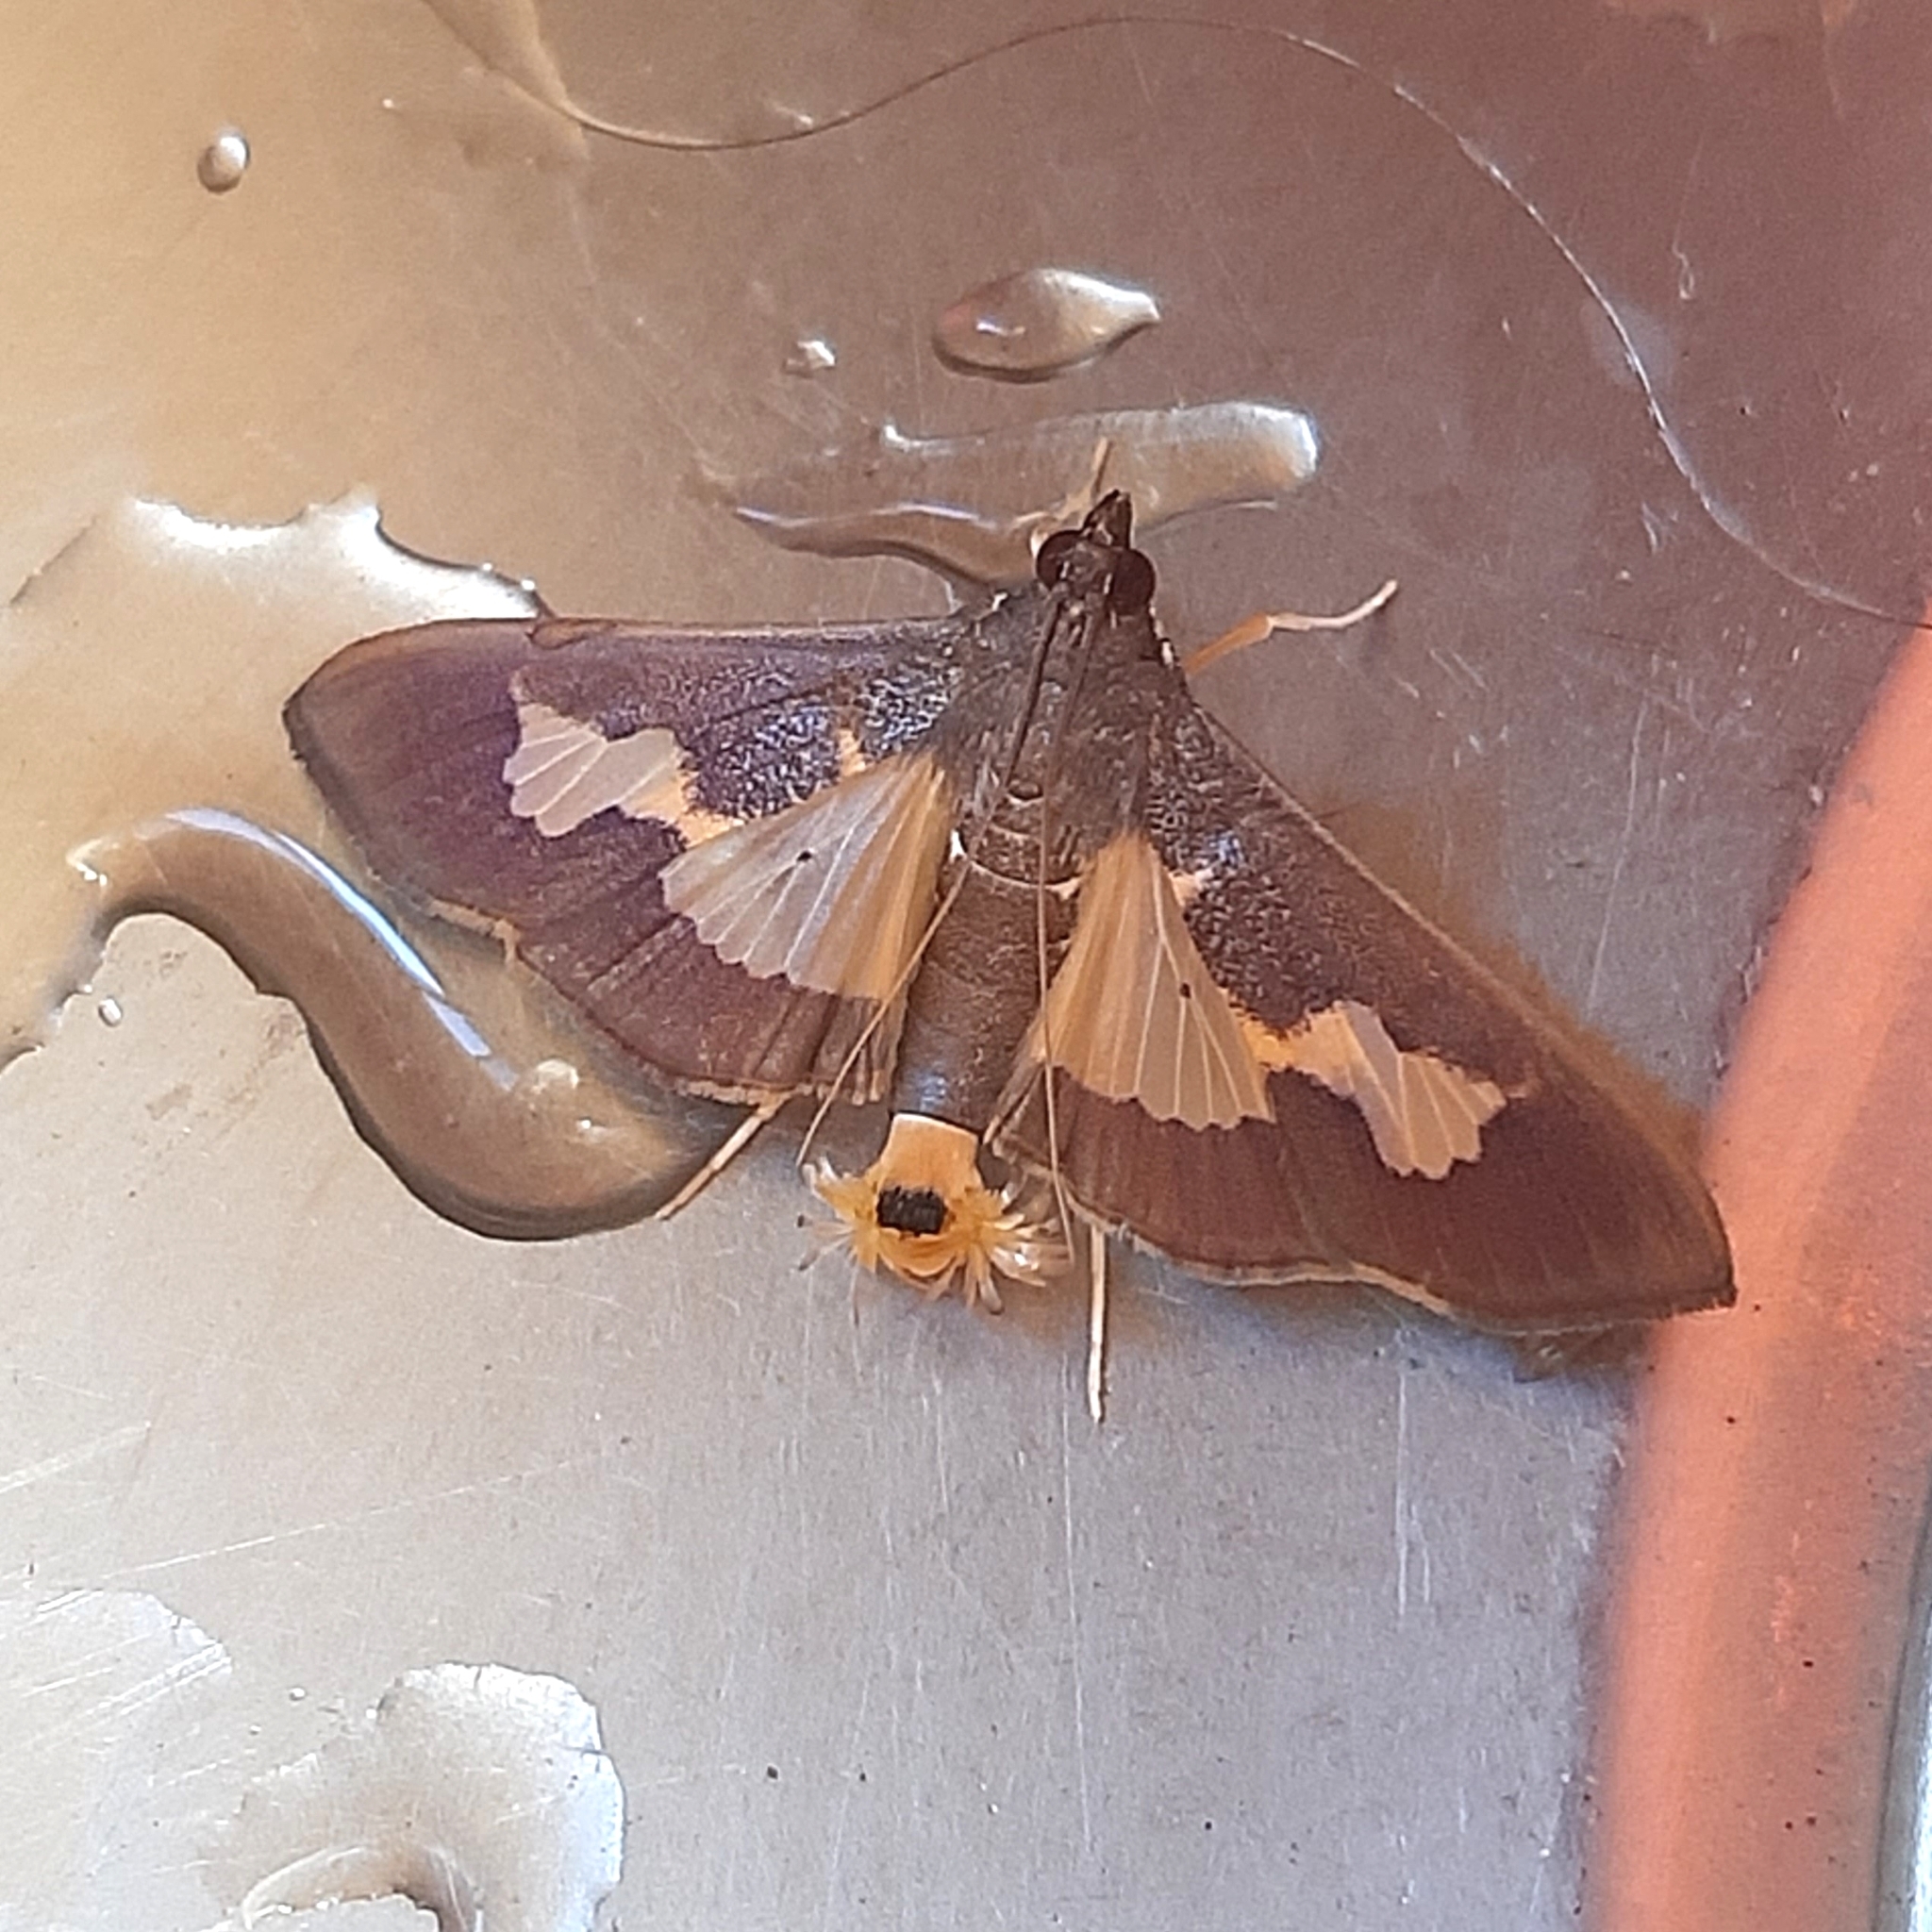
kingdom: Animalia
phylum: Arthropoda
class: Insecta
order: Lepidoptera
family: Crambidae
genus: Cryptographis
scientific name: Cryptographis nitidalis
